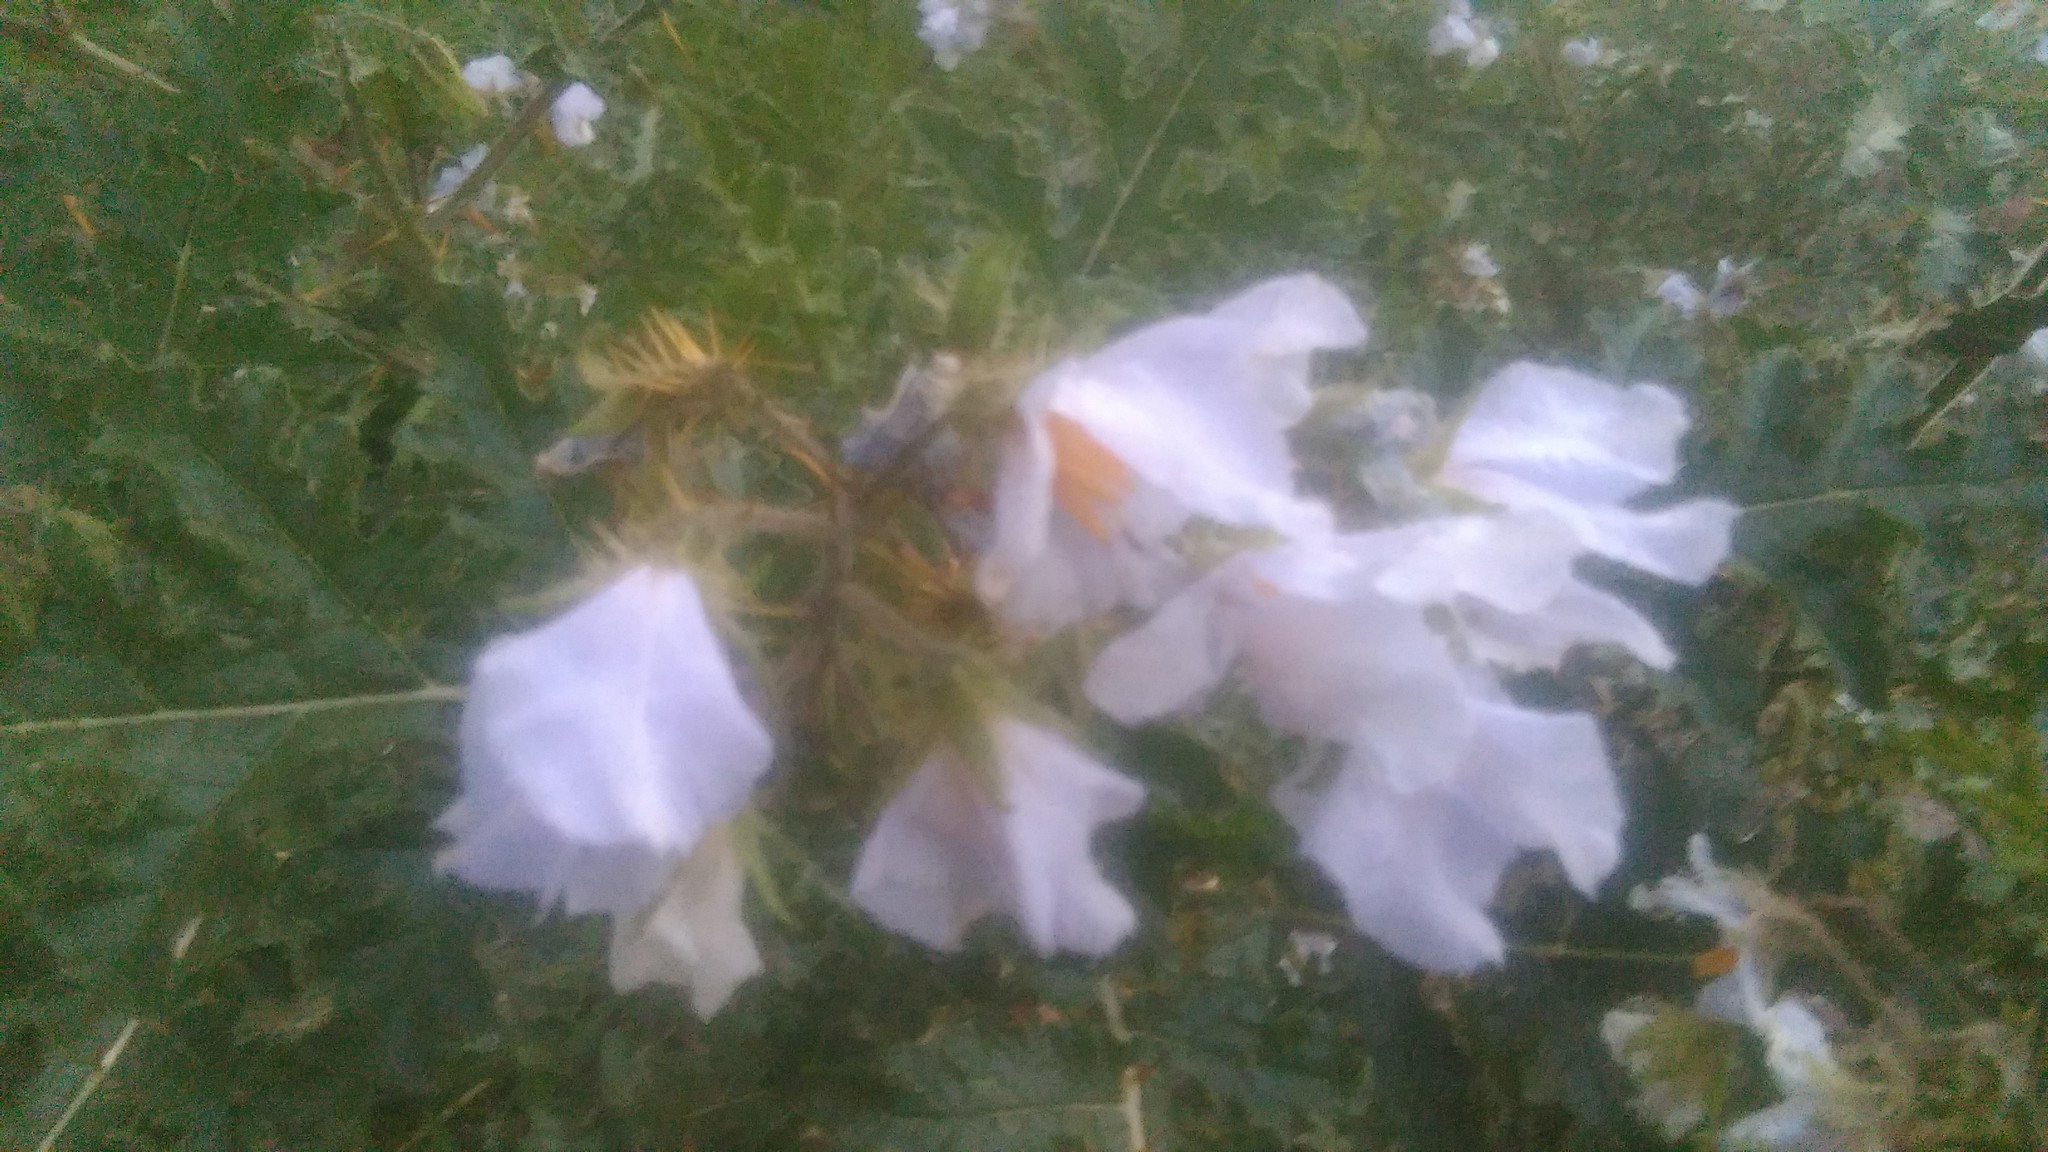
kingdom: Plantae
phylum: Tracheophyta
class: Magnoliopsida
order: Solanales
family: Solanaceae
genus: Solanum
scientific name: Solanum sisymbriifolium
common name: Red buffalo-bur
